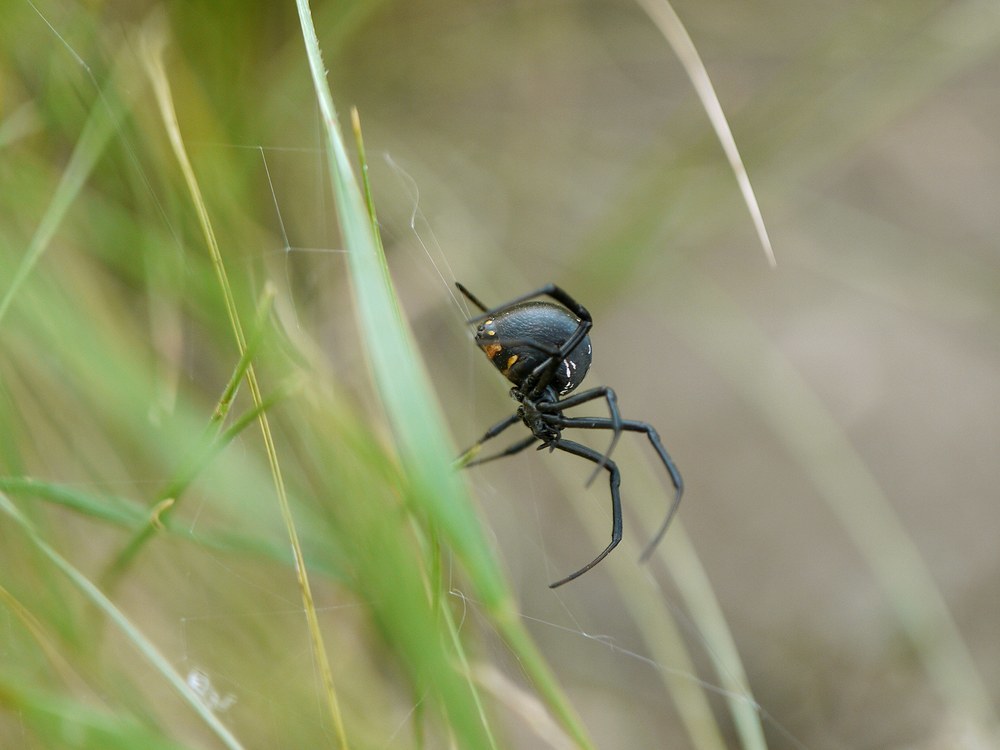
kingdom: Animalia
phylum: Arthropoda
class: Arachnida
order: Araneae
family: Theridiidae
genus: Latrodectus
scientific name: Latrodectus tredecimguttatus
